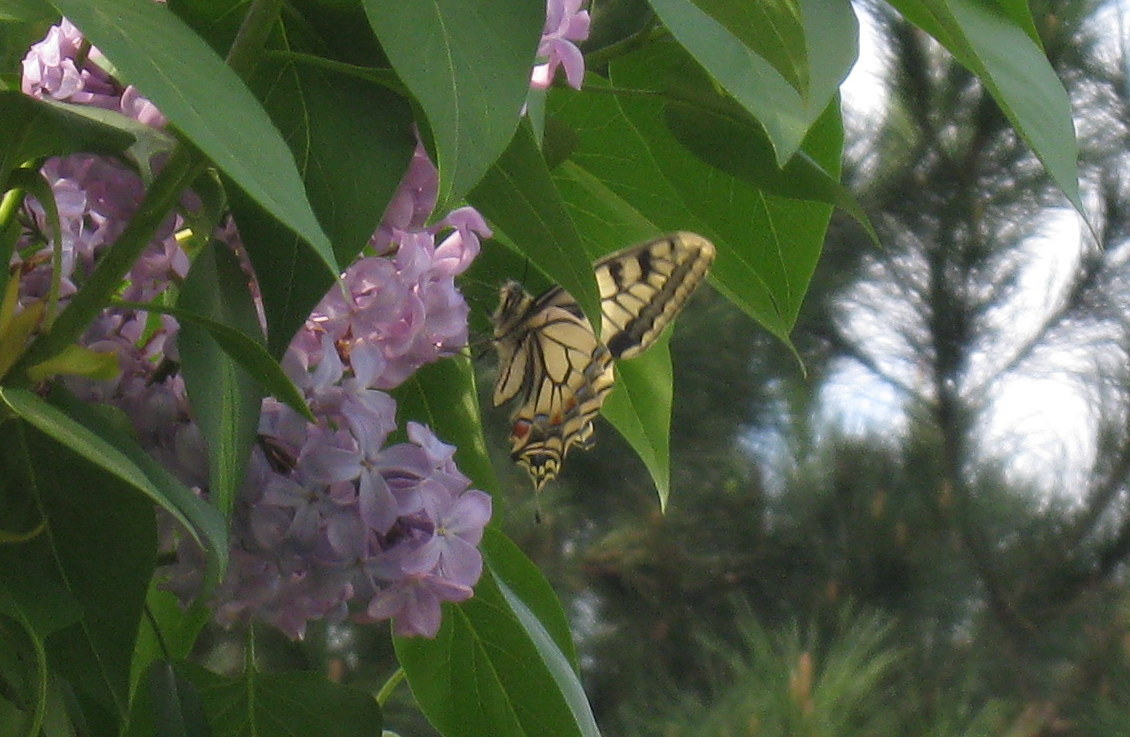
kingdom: Animalia
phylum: Arthropoda
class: Insecta
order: Lepidoptera
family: Papilionidae
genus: Papilio
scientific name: Papilio machaon
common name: Swallowtail
